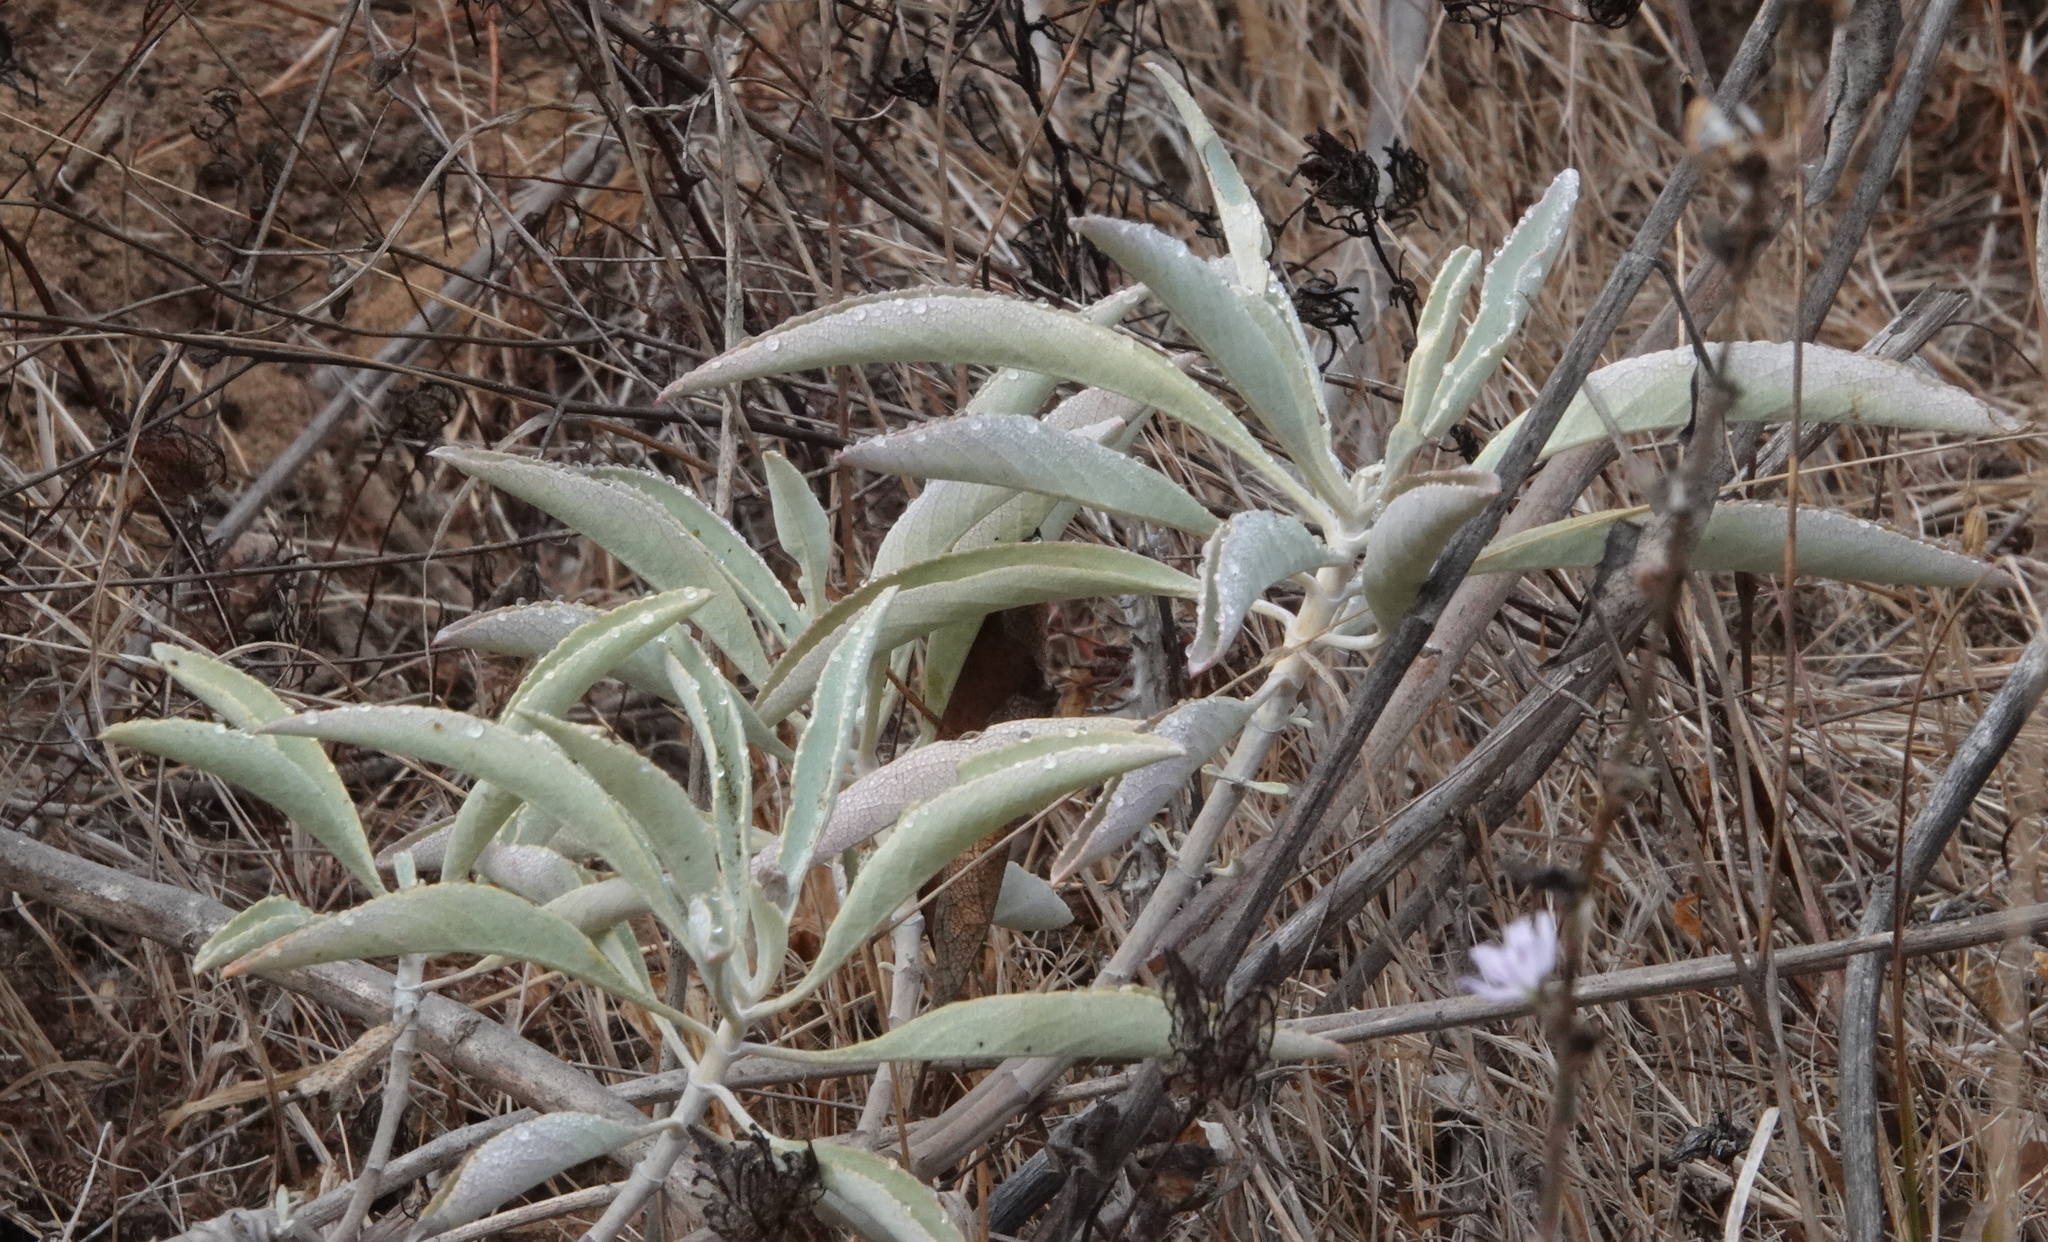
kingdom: Plantae
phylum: Tracheophyta
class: Magnoliopsida
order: Lamiales
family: Lamiaceae
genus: Salvia
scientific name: Salvia apiana
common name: White sage
